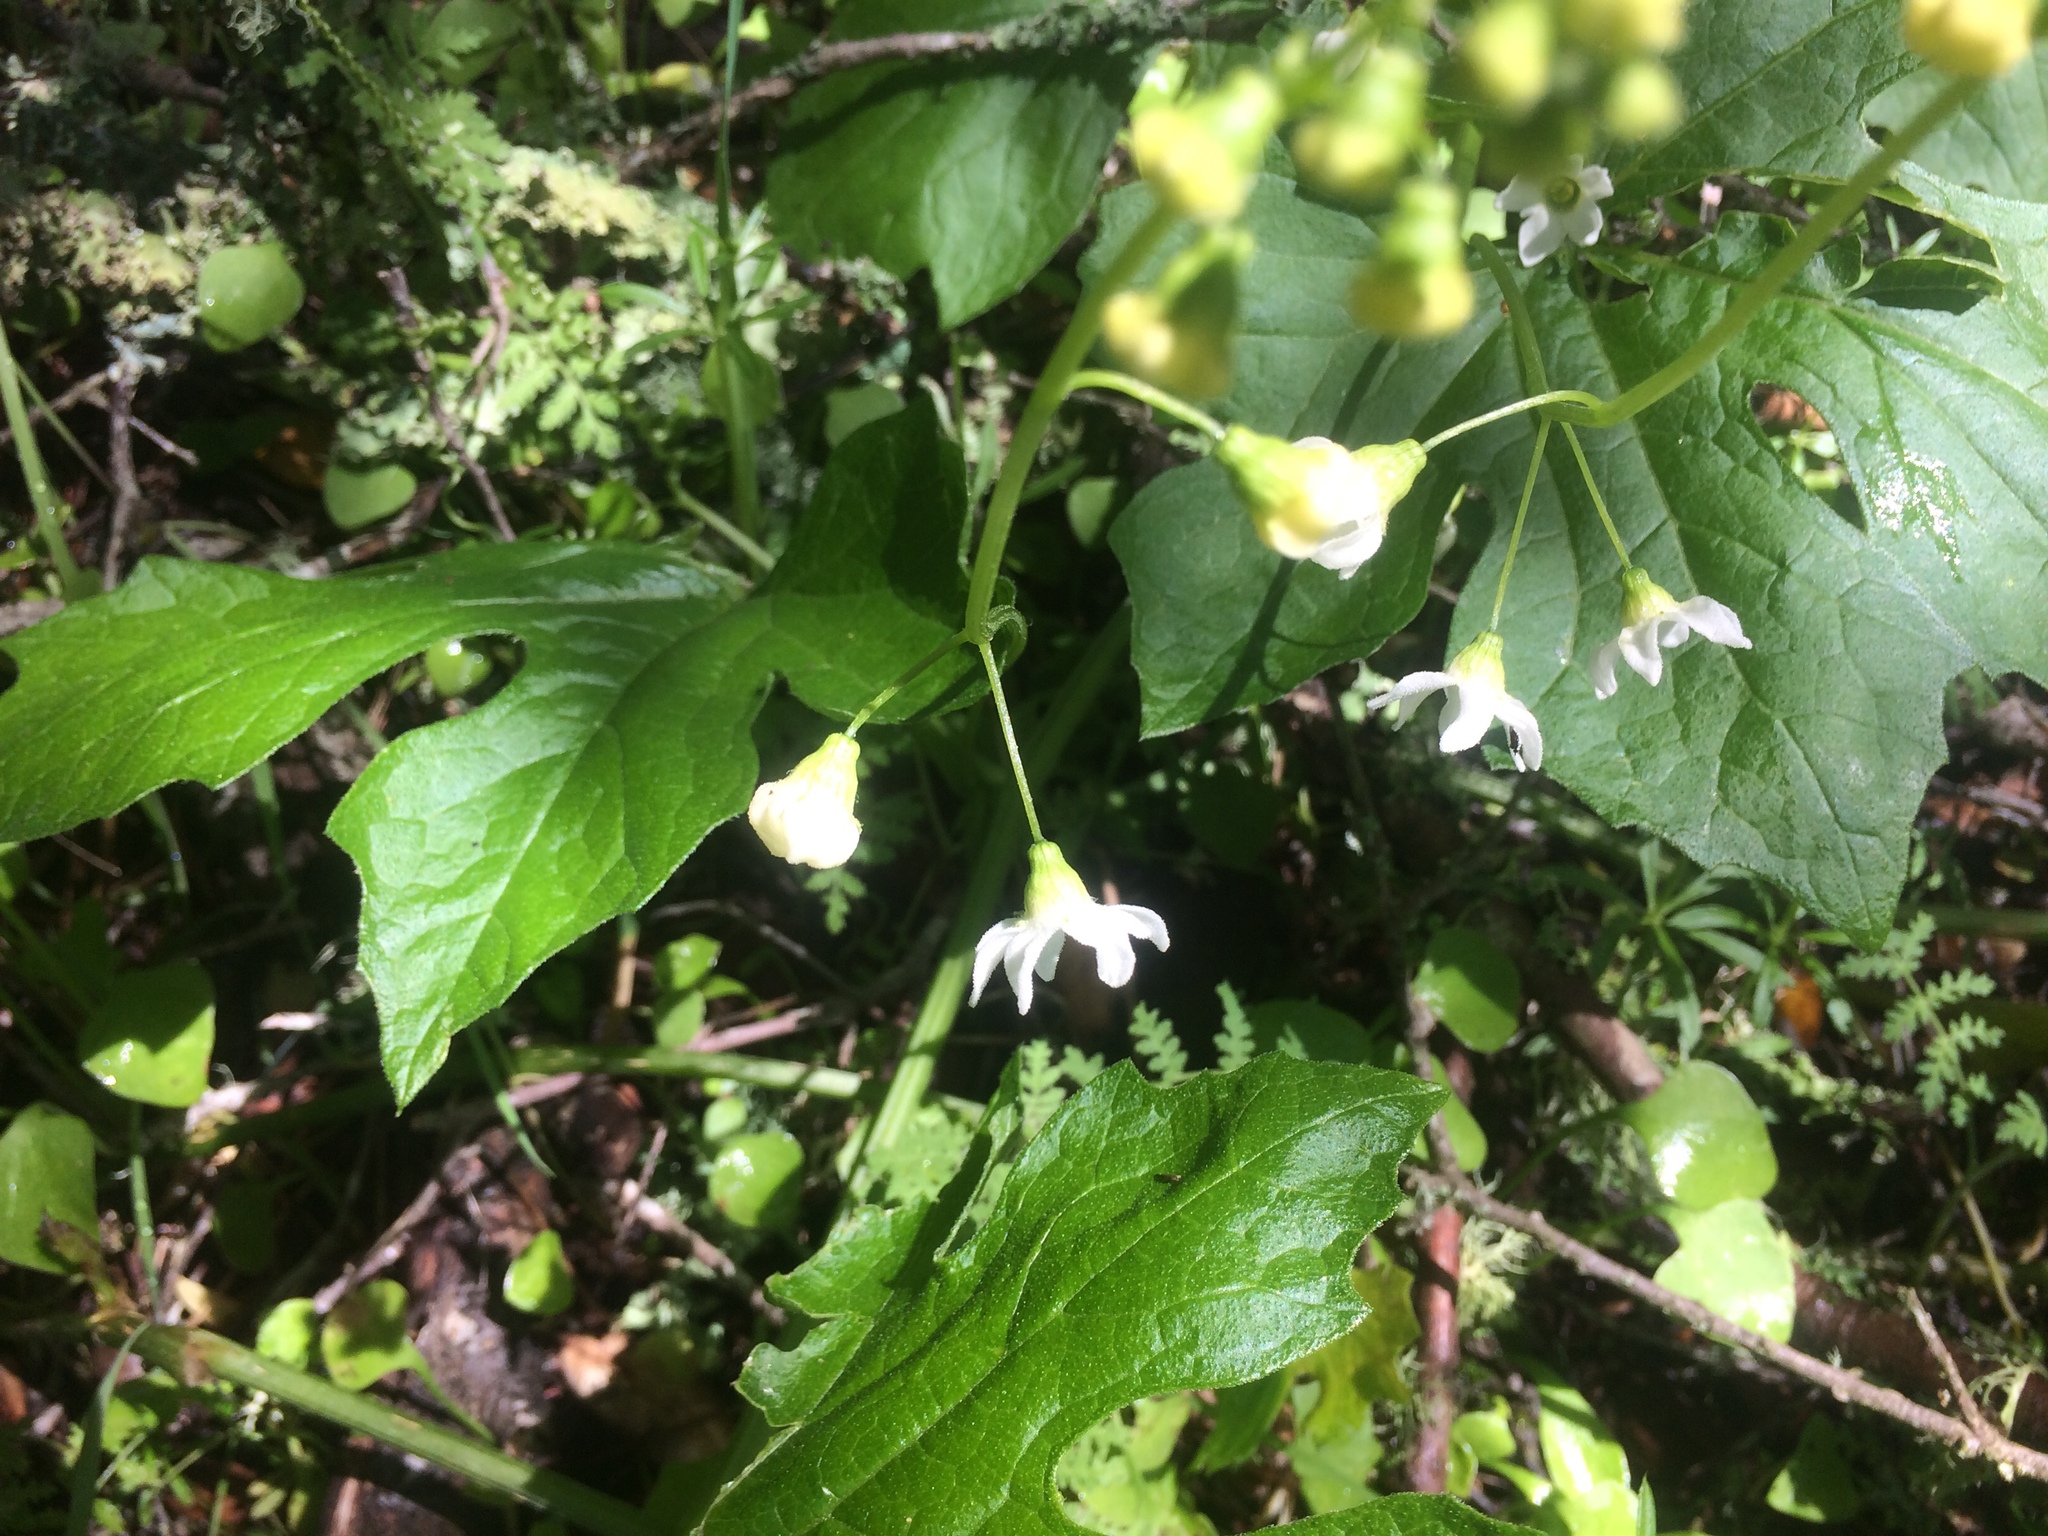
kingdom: Plantae
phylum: Tracheophyta
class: Magnoliopsida
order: Cucurbitales
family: Cucurbitaceae
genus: Marah
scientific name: Marah oregana
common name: Coastal manroot
